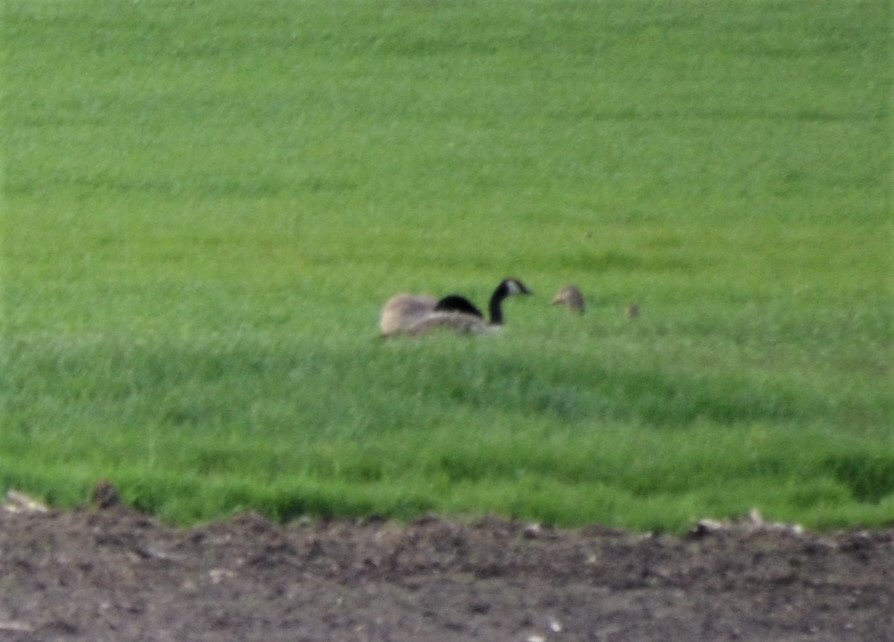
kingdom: Animalia
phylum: Chordata
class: Aves
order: Anseriformes
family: Anatidae
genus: Branta
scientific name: Branta canadensis
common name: Canada goose
